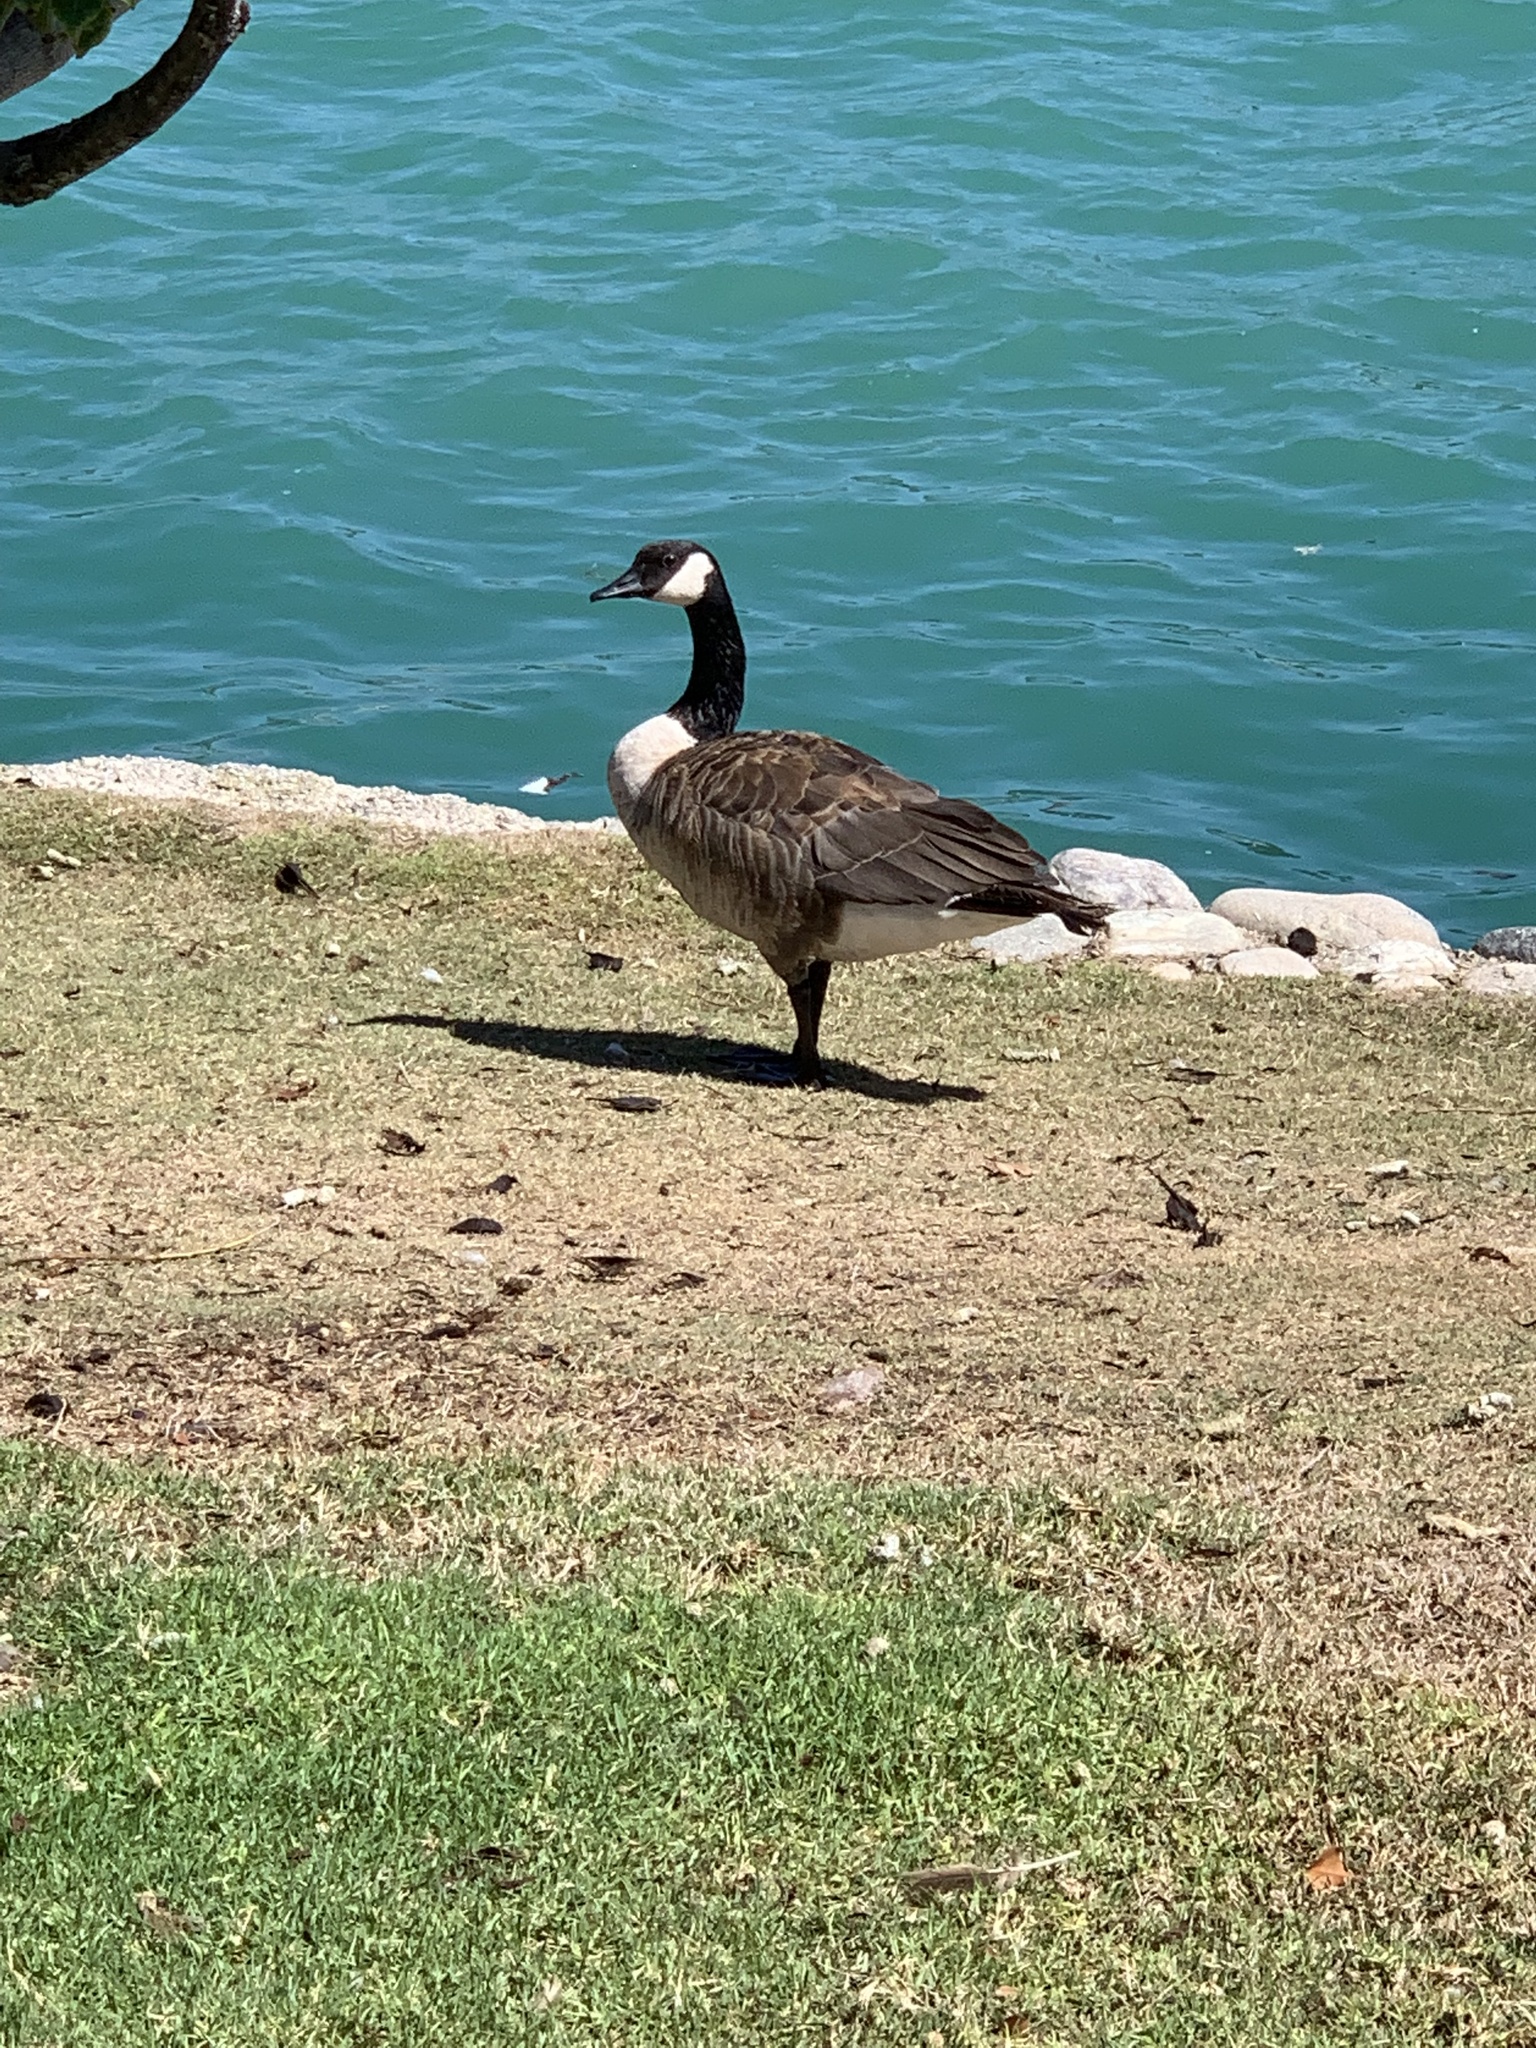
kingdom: Animalia
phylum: Chordata
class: Aves
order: Anseriformes
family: Anatidae
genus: Branta
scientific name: Branta canadensis
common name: Canada goose
